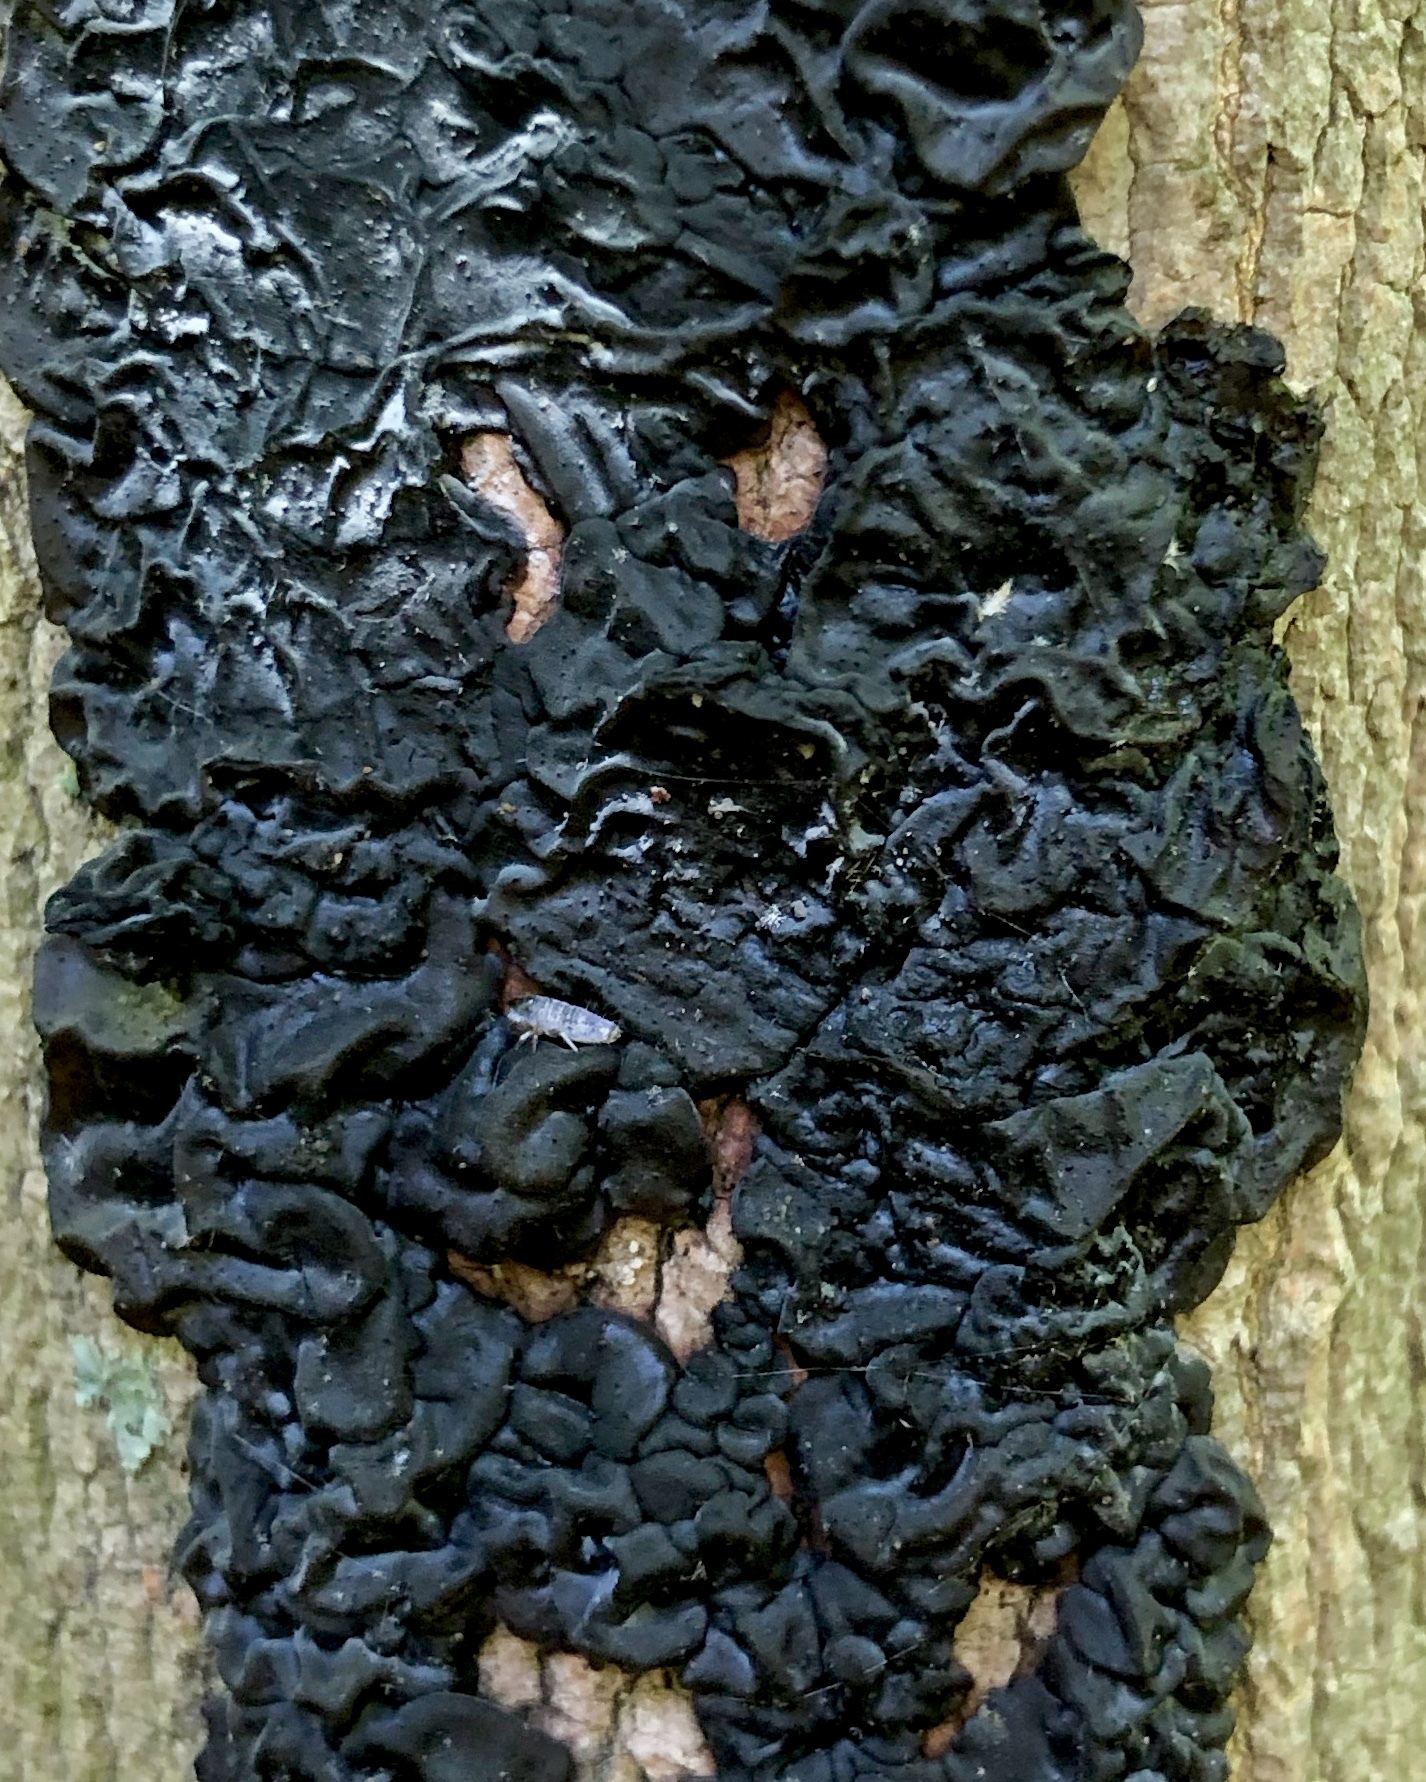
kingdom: Fungi
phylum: Basidiomycota
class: Agaricomycetes
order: Auriculariales
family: Auriculariaceae
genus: Exidia
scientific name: Exidia nigricans
